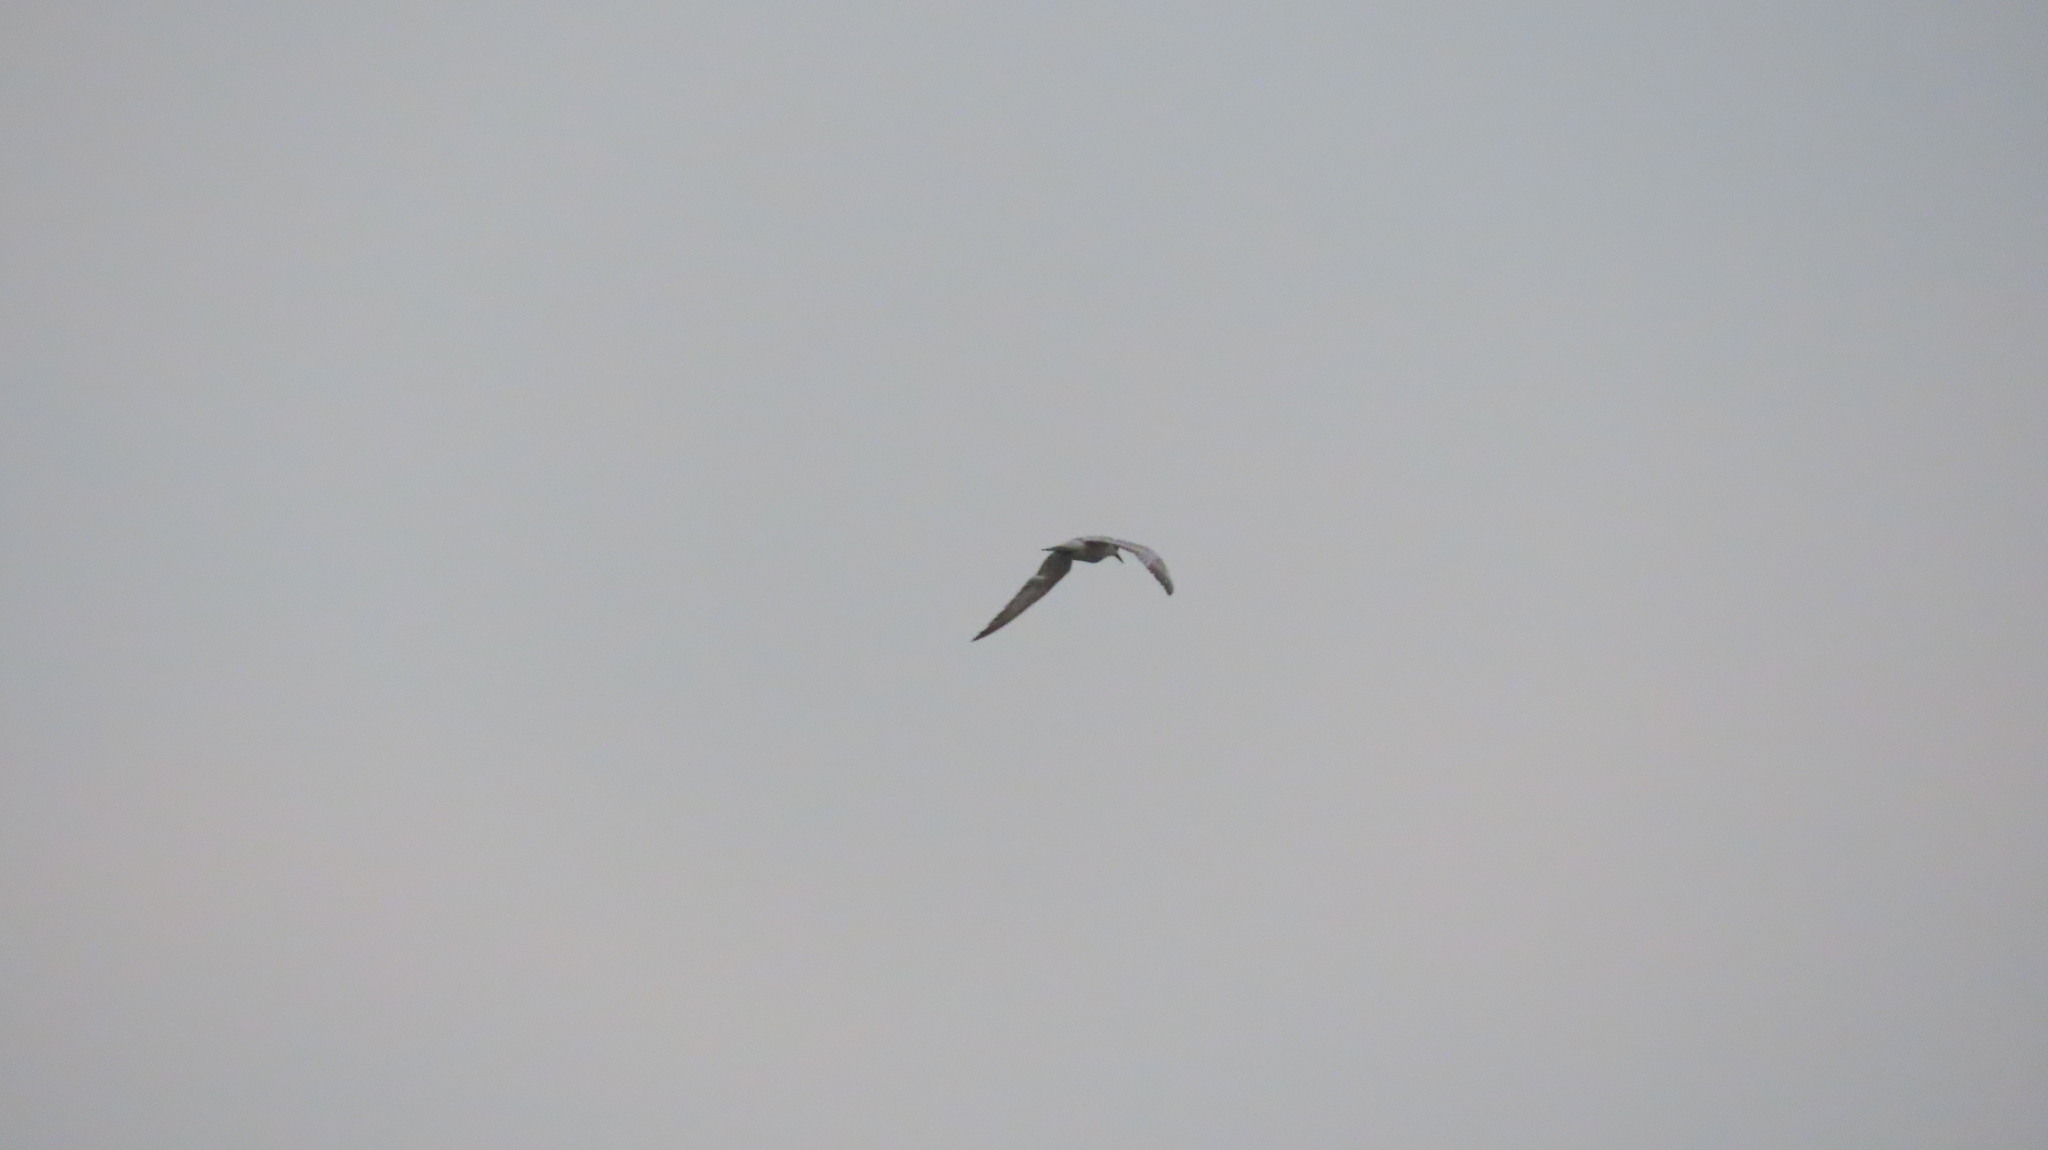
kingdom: Animalia
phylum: Chordata
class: Aves
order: Charadriiformes
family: Laridae
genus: Chlidonias
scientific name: Chlidonias hybrida
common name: Whiskered tern
